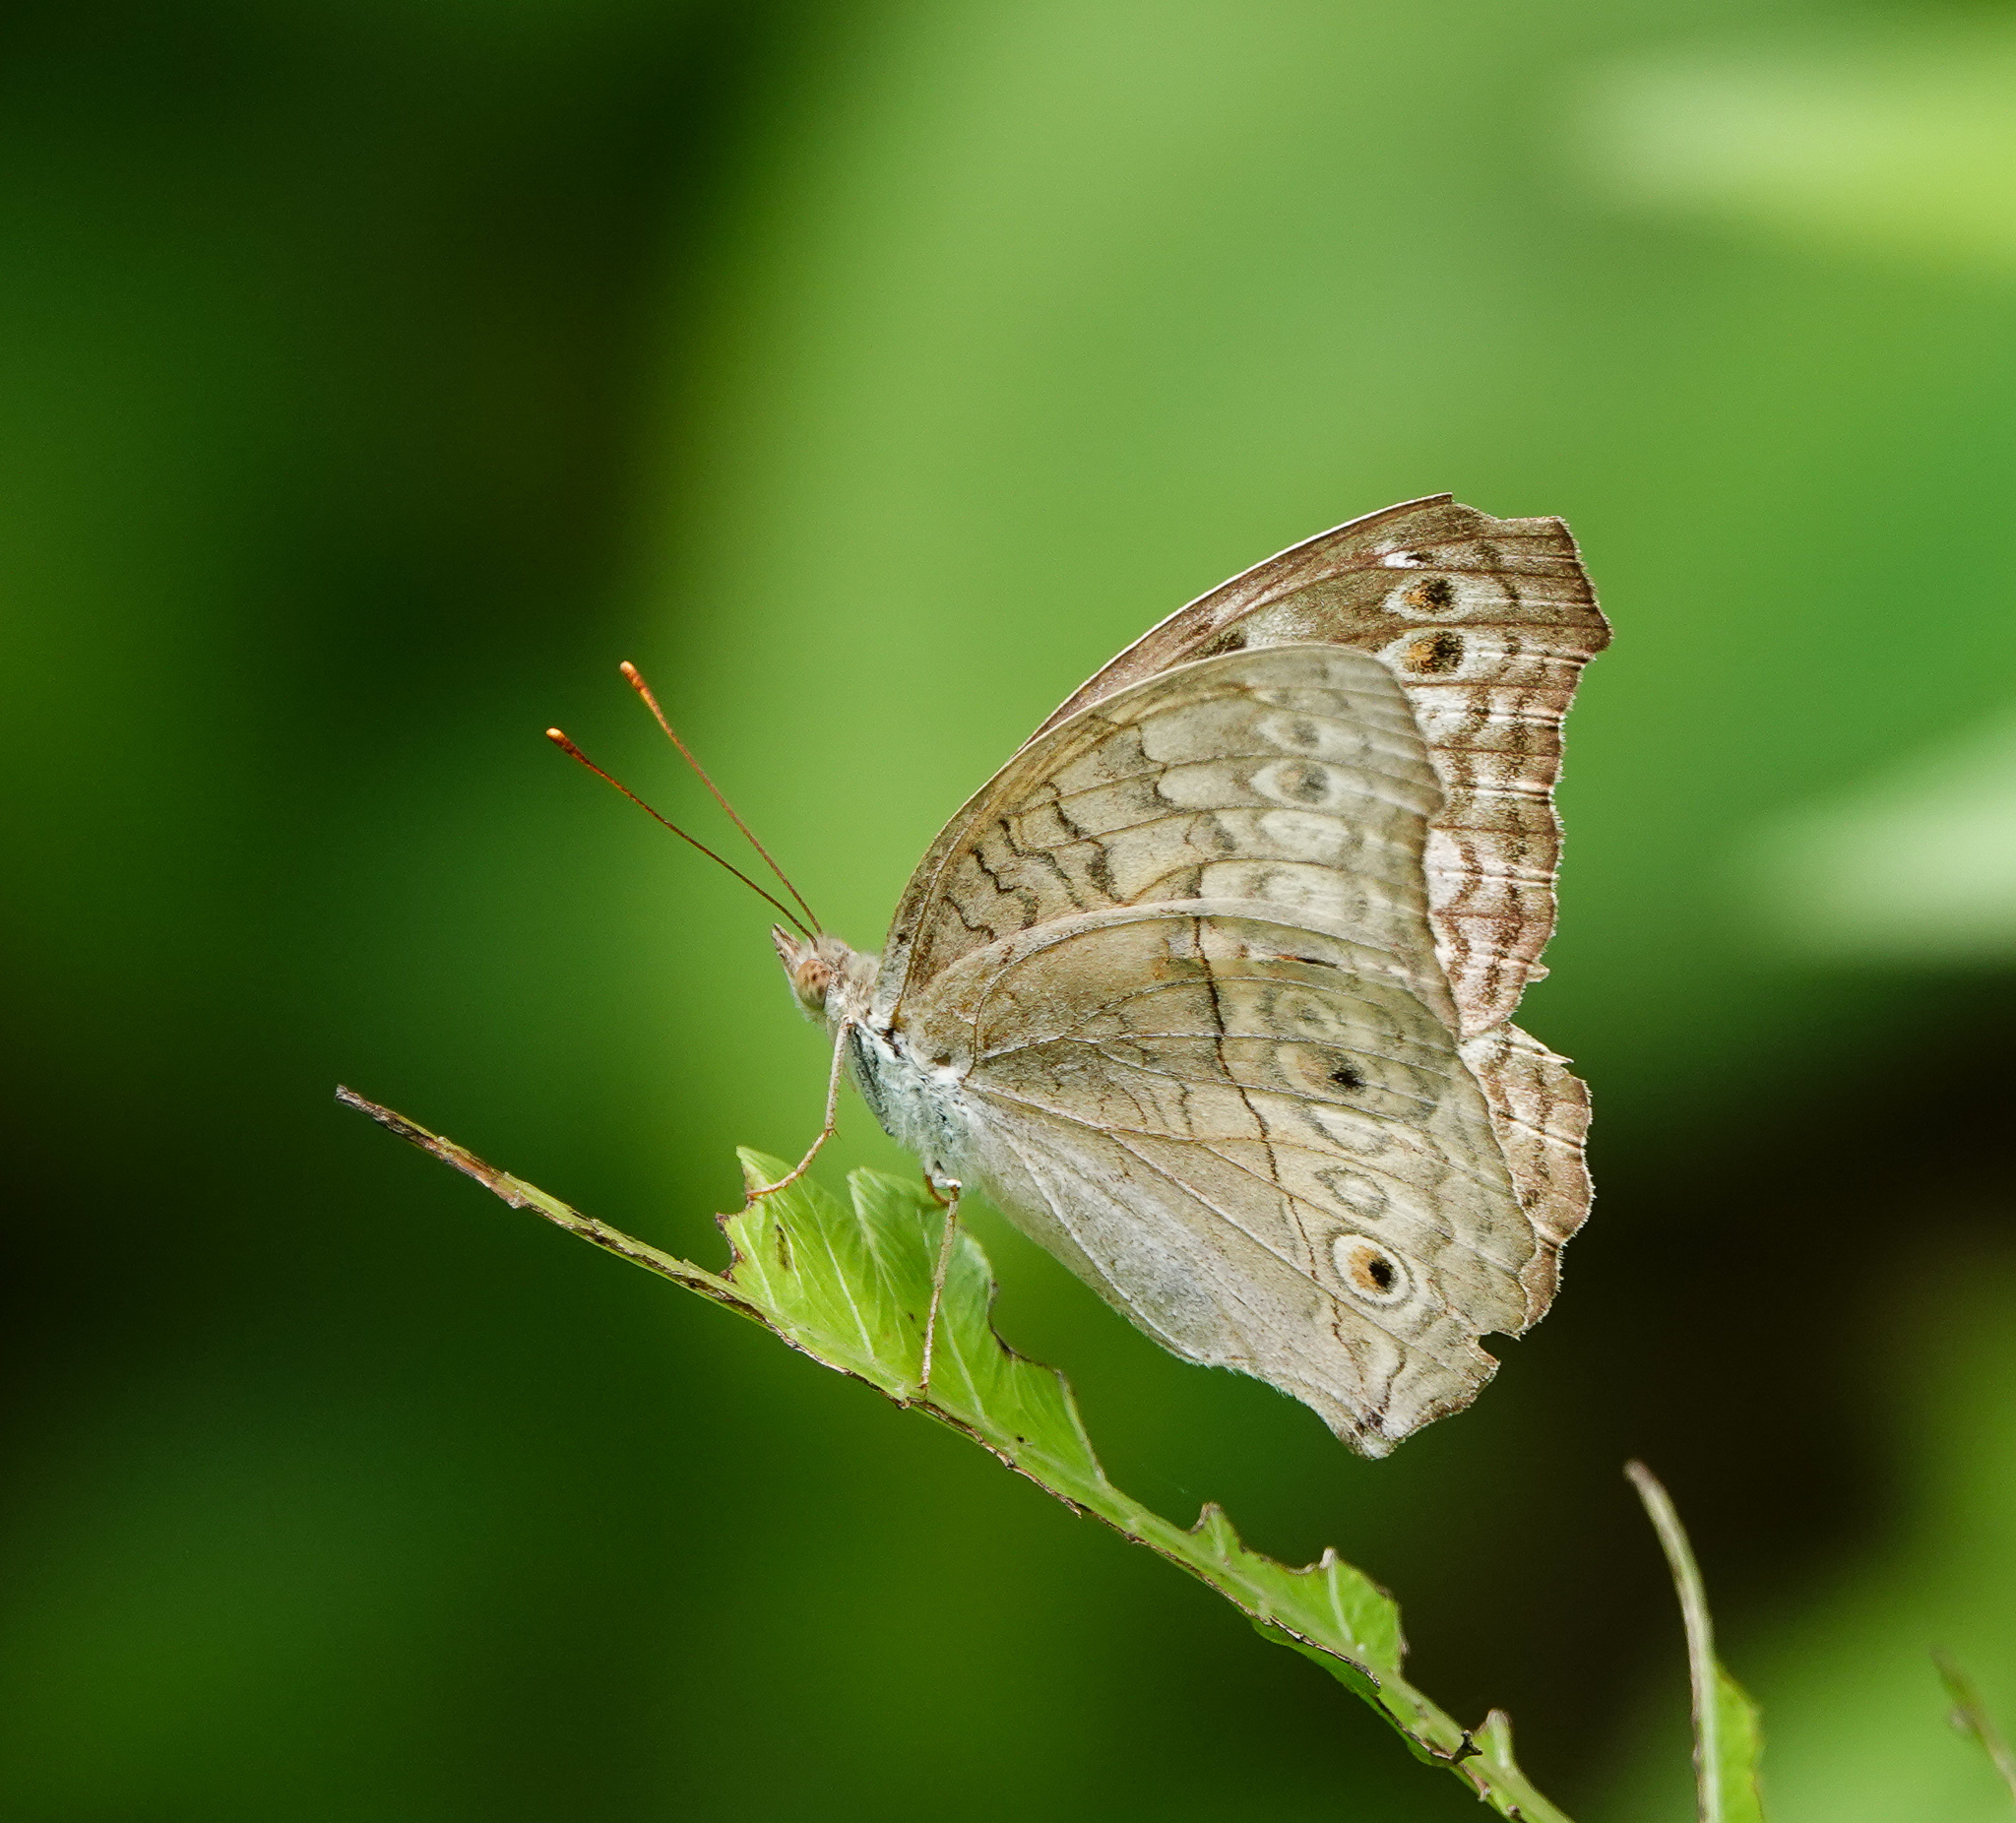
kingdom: Animalia
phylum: Arthropoda
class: Insecta
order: Lepidoptera
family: Nymphalidae
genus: Junonia
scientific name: Junonia atlites
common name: Grey pansy
